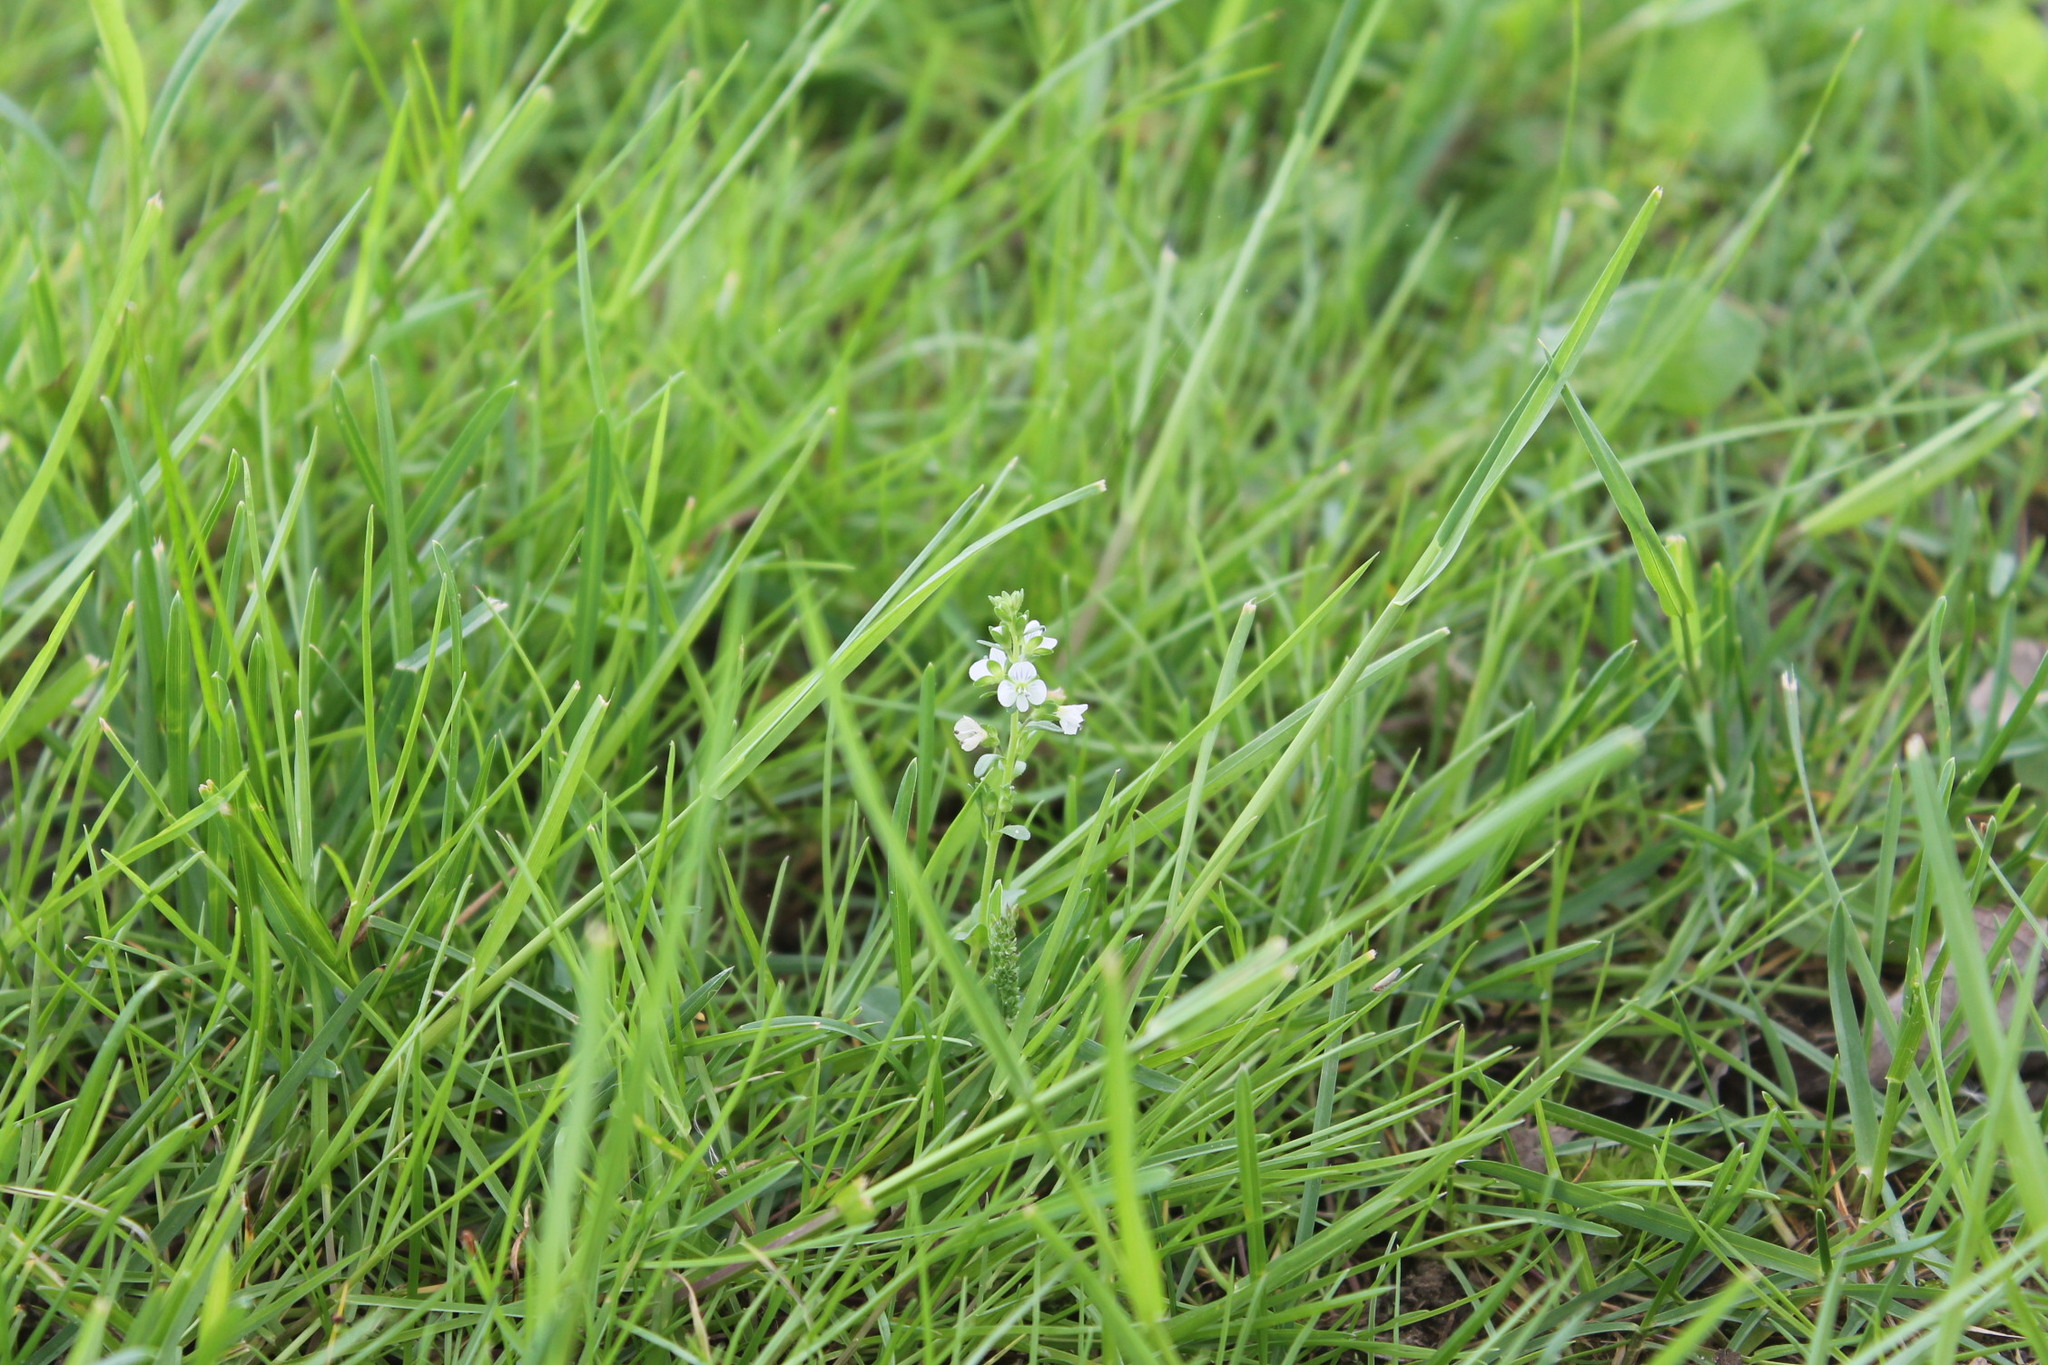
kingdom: Plantae
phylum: Tracheophyta
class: Magnoliopsida
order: Lamiales
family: Plantaginaceae
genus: Veronica
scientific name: Veronica serpyllifolia
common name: Thyme-leaved speedwell
